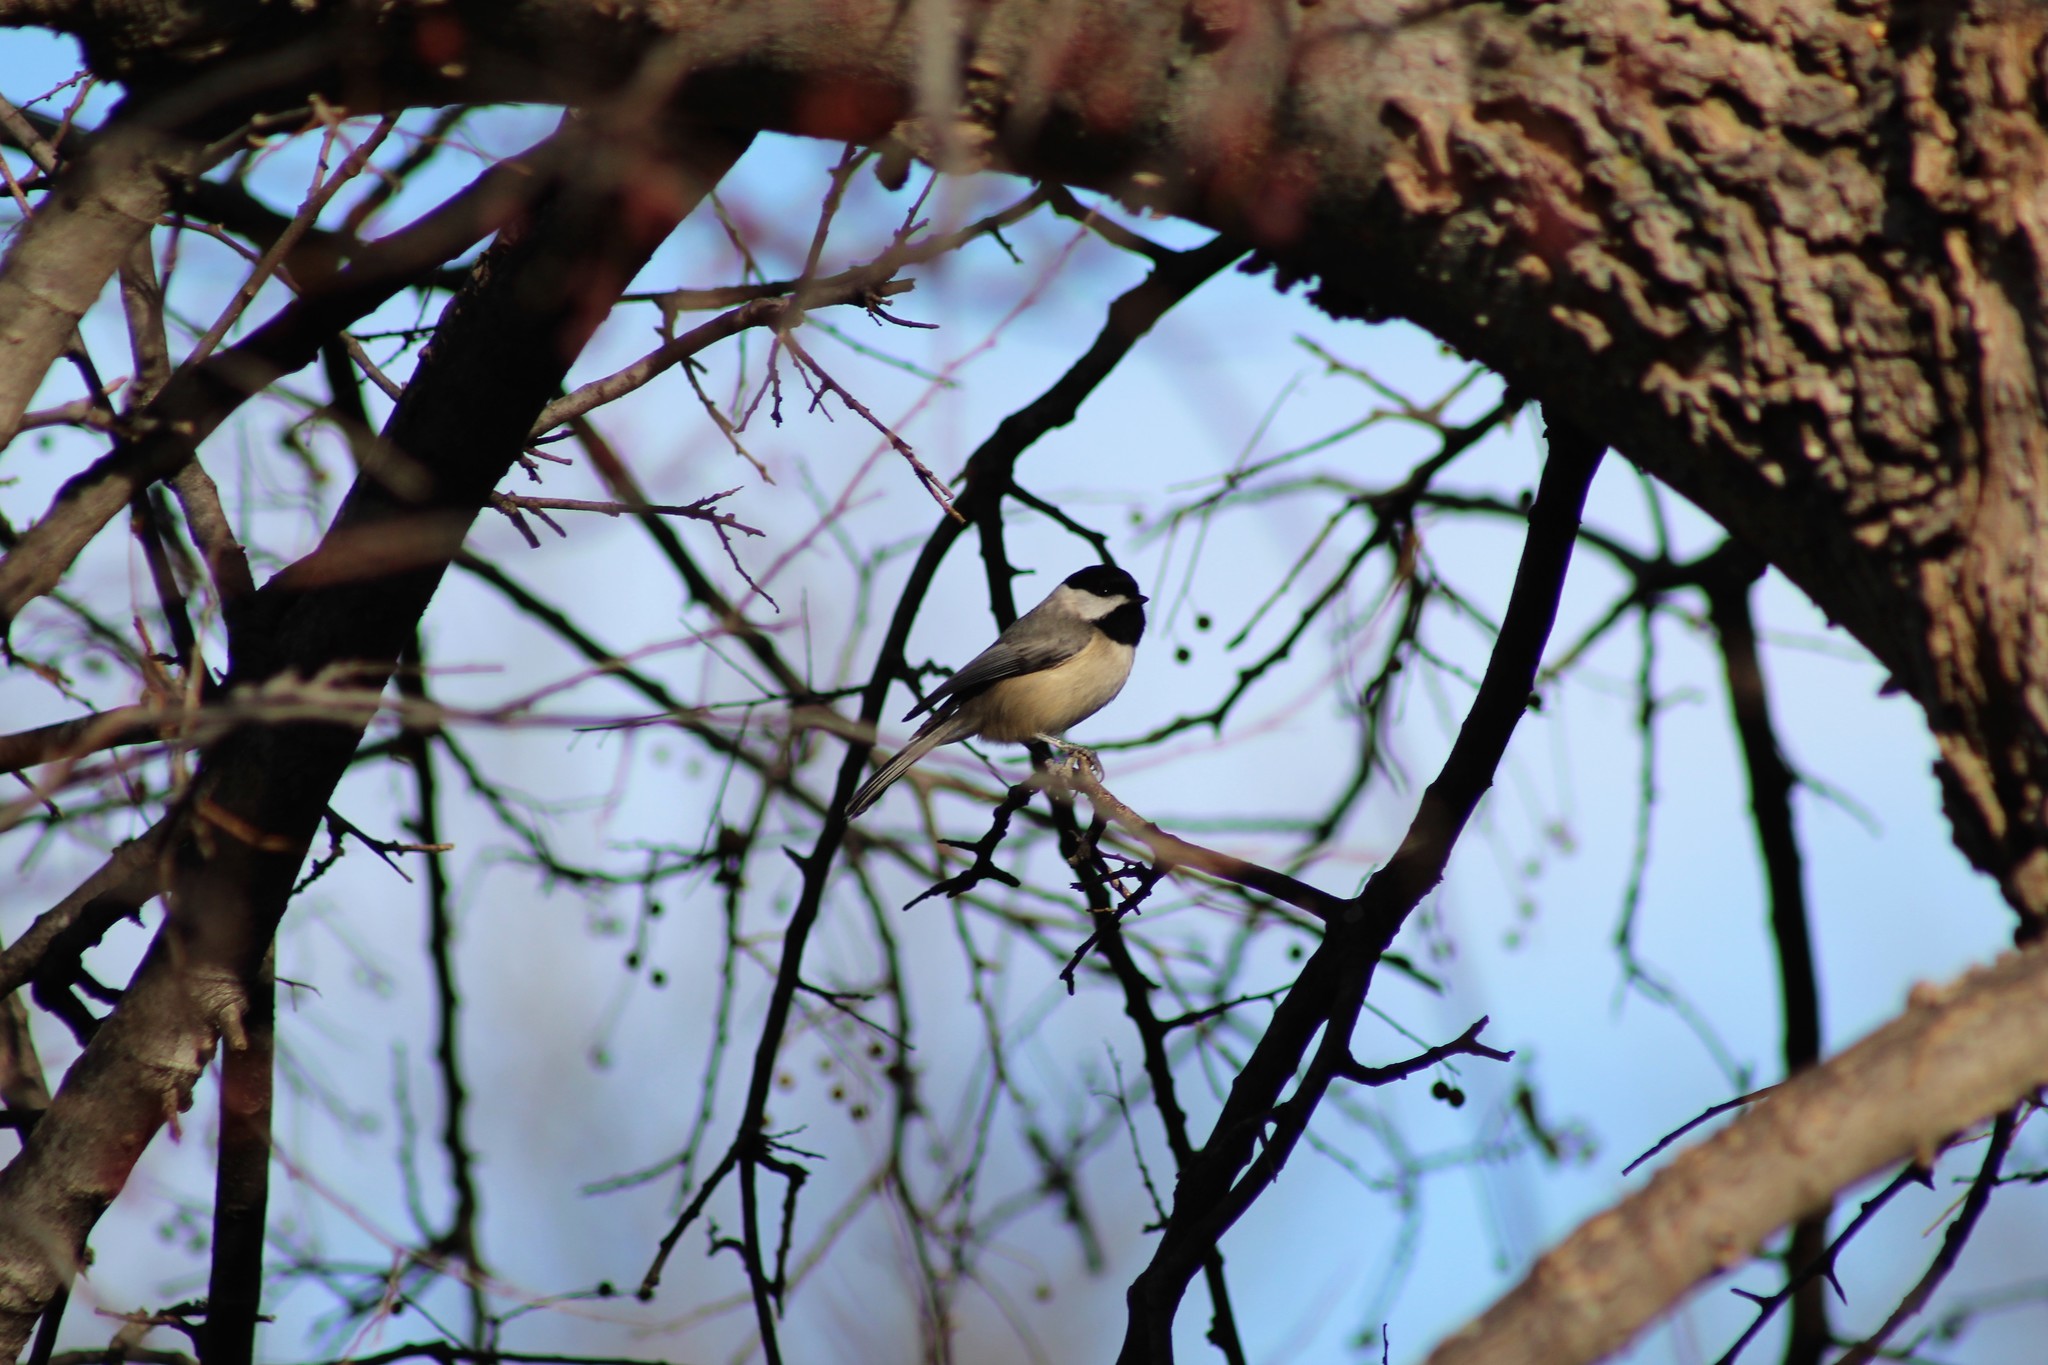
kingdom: Animalia
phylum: Chordata
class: Aves
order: Passeriformes
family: Paridae
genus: Poecile
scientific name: Poecile carolinensis
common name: Carolina chickadee
